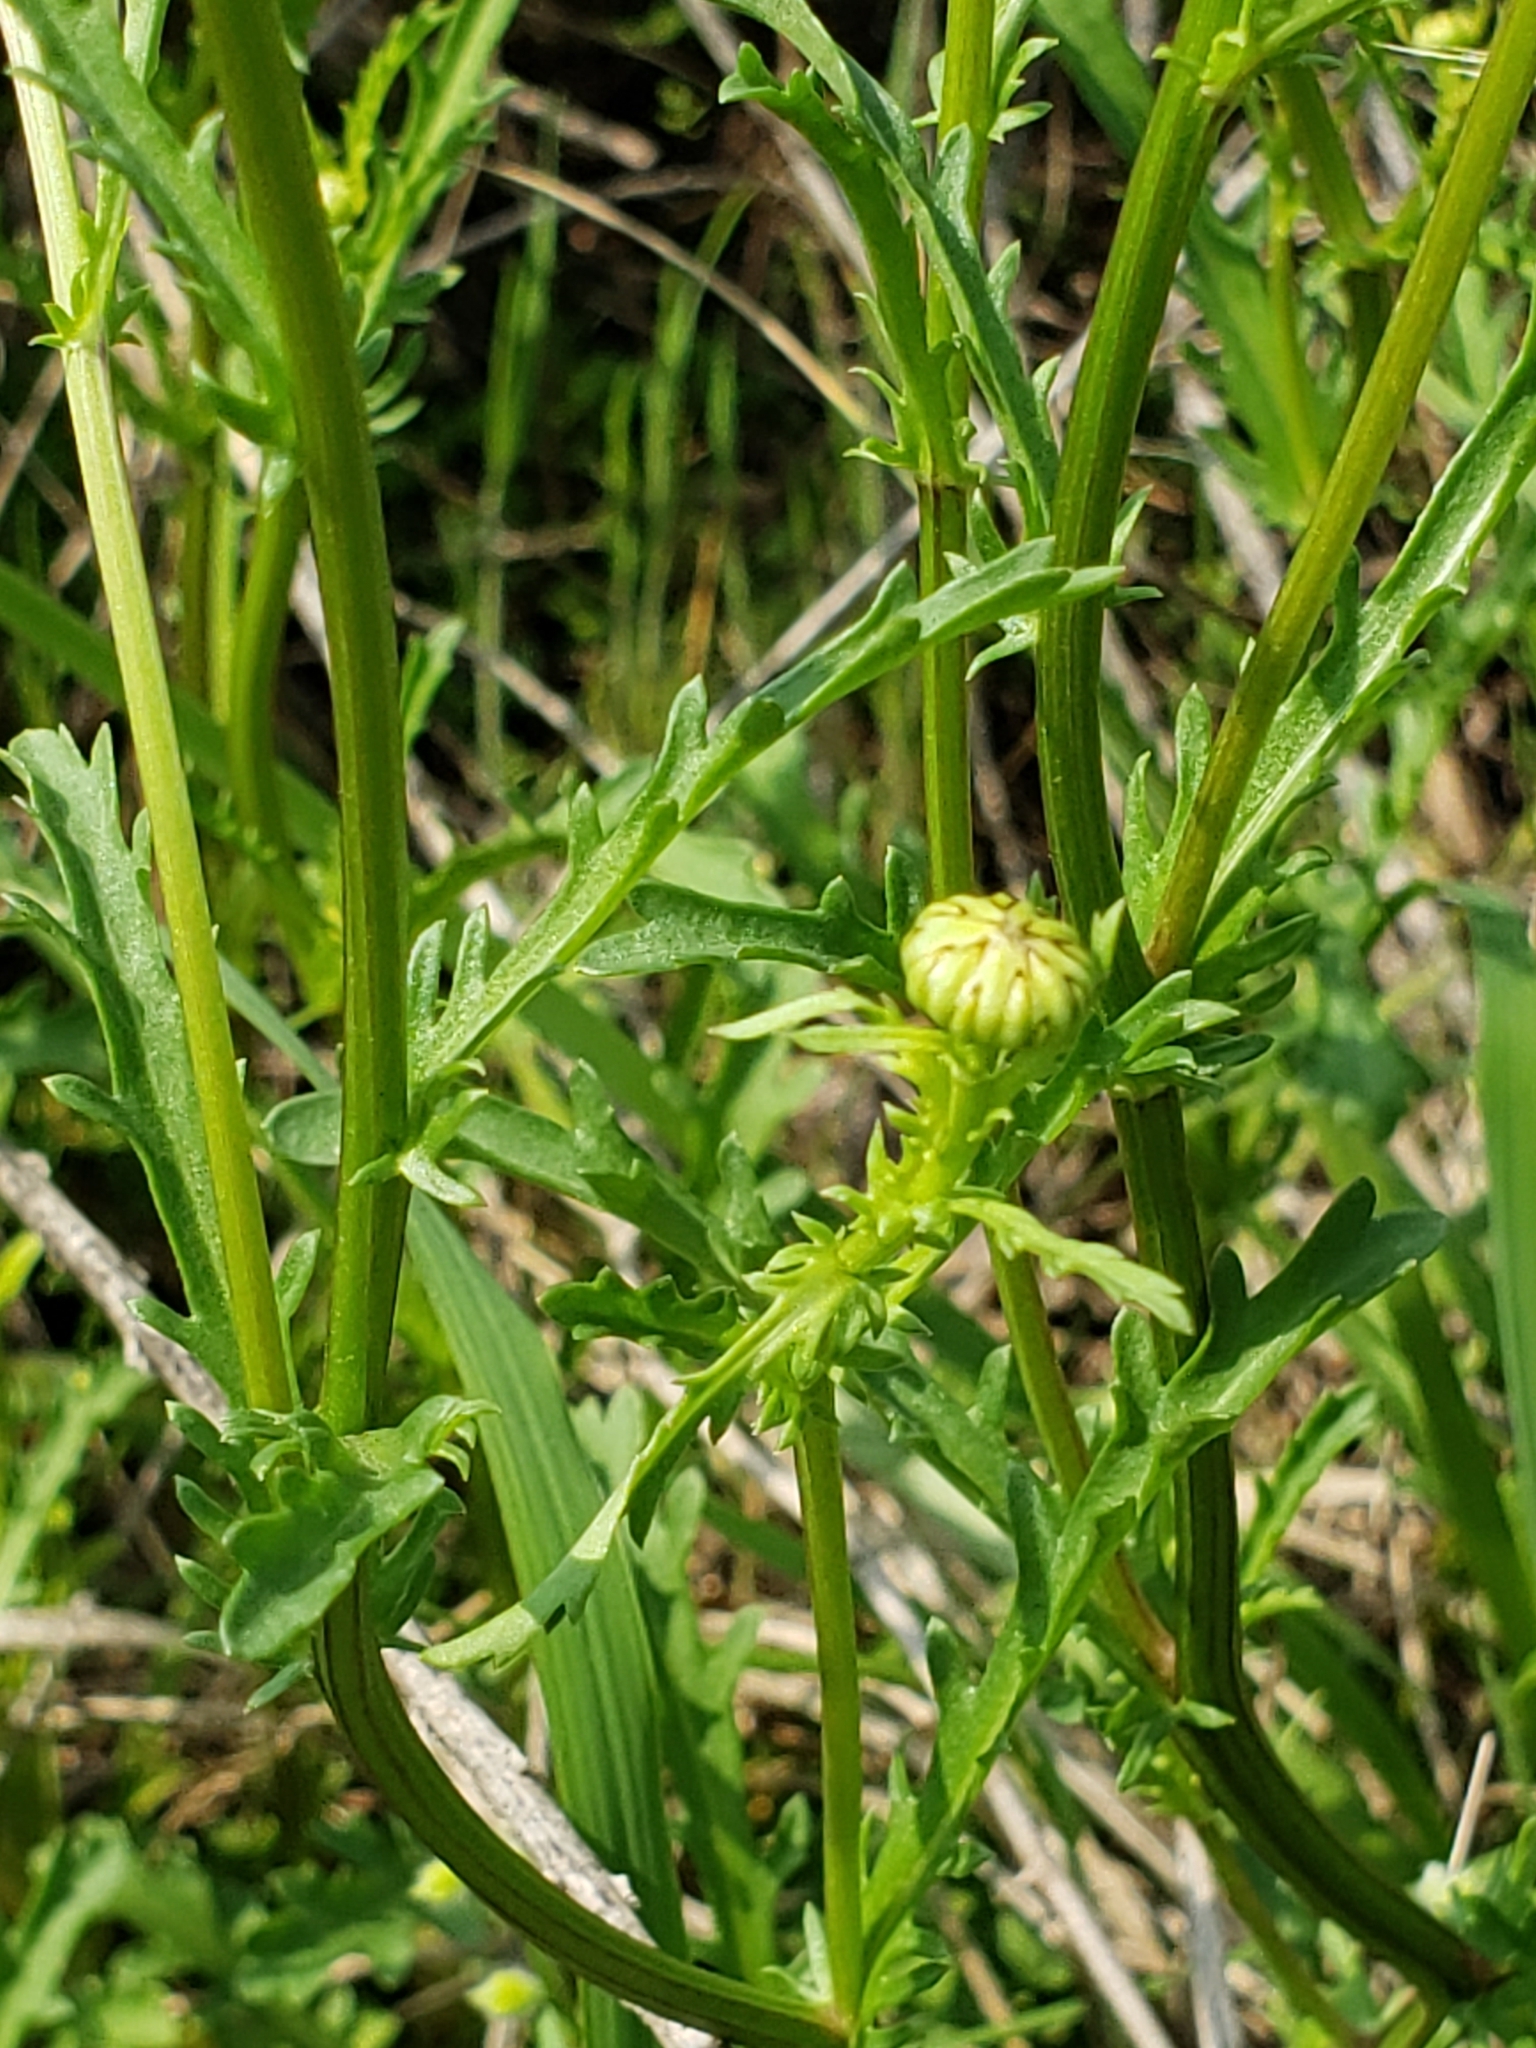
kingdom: Plantae
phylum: Tracheophyta
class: Magnoliopsida
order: Asterales
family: Asteraceae
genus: Leucanthemum
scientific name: Leucanthemum vulgare
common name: Oxeye daisy
